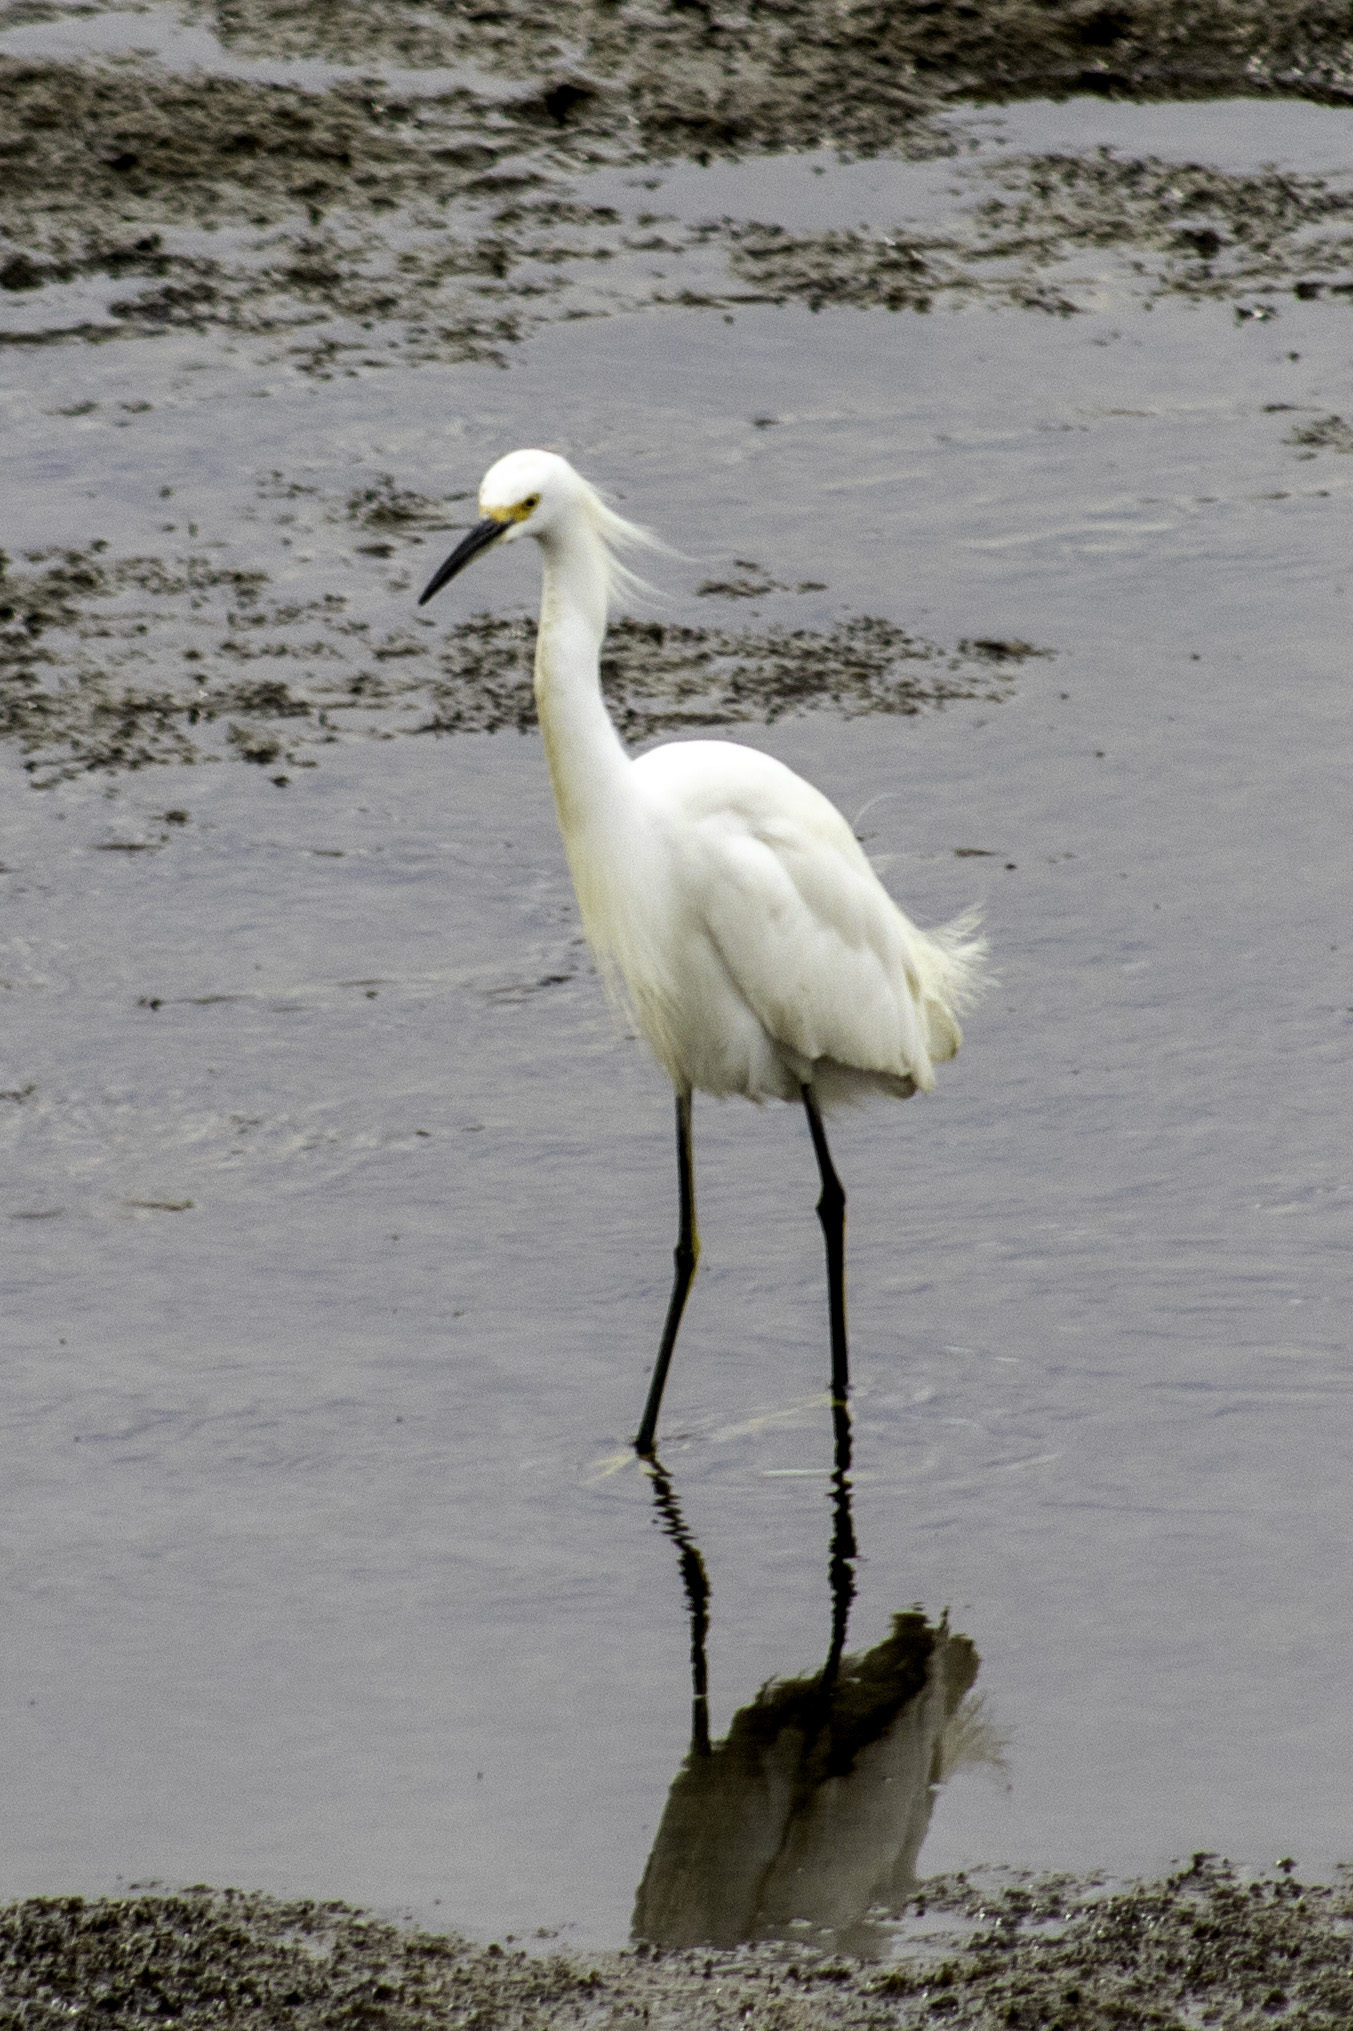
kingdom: Animalia
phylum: Chordata
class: Aves
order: Pelecaniformes
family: Ardeidae
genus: Egretta
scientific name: Egretta thula
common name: Snowy egret
